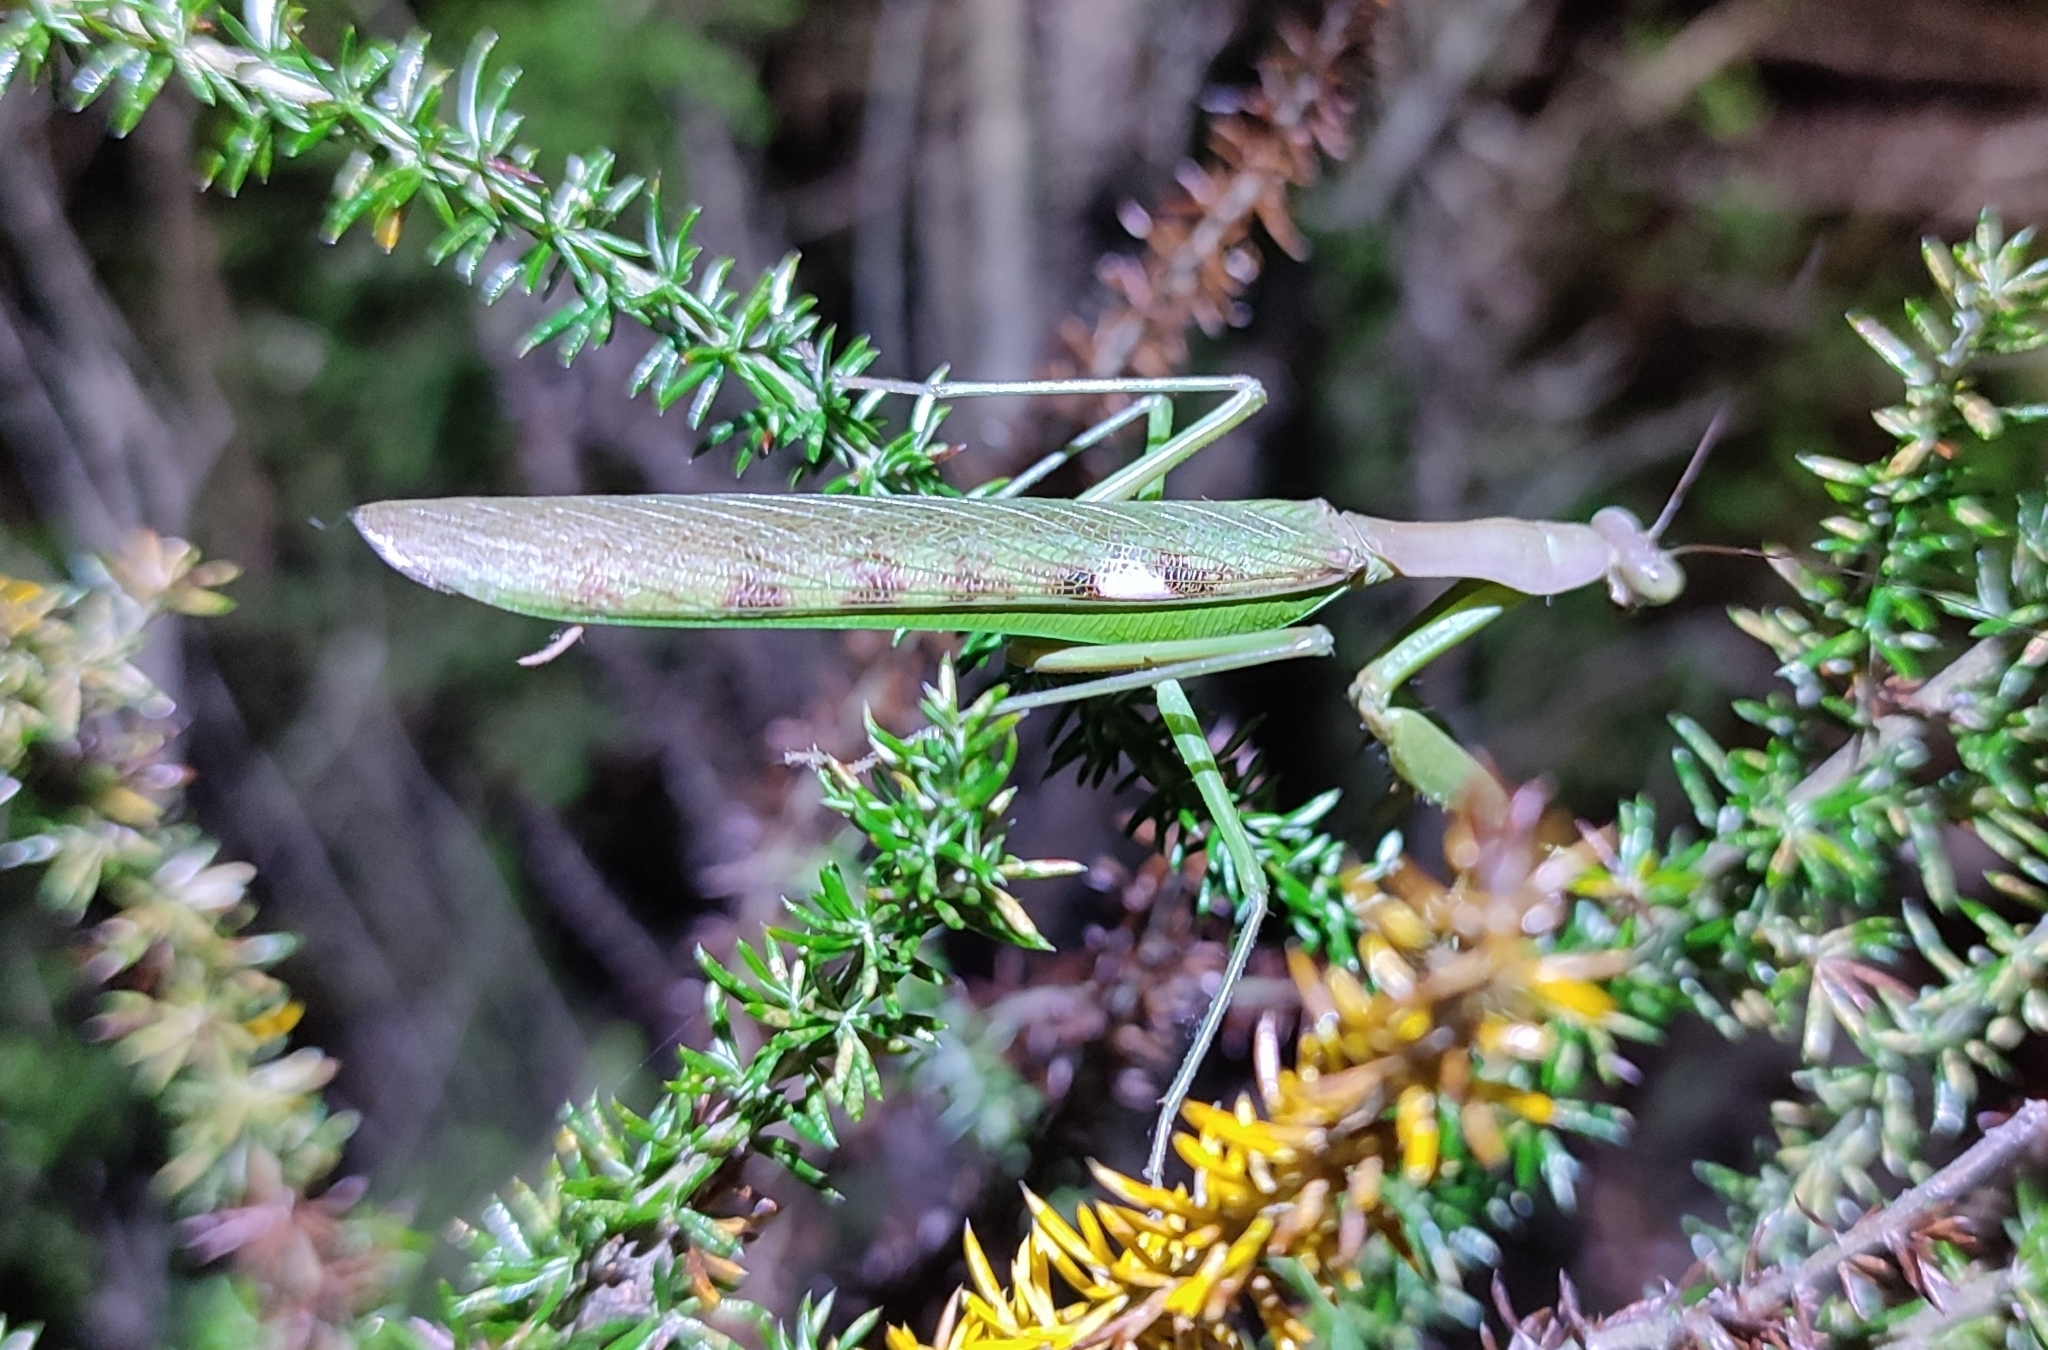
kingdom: Animalia
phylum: Arthropoda
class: Insecta
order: Mantodea
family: Mantidae
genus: Polyspilota
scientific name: Polyspilota aeruginosa
